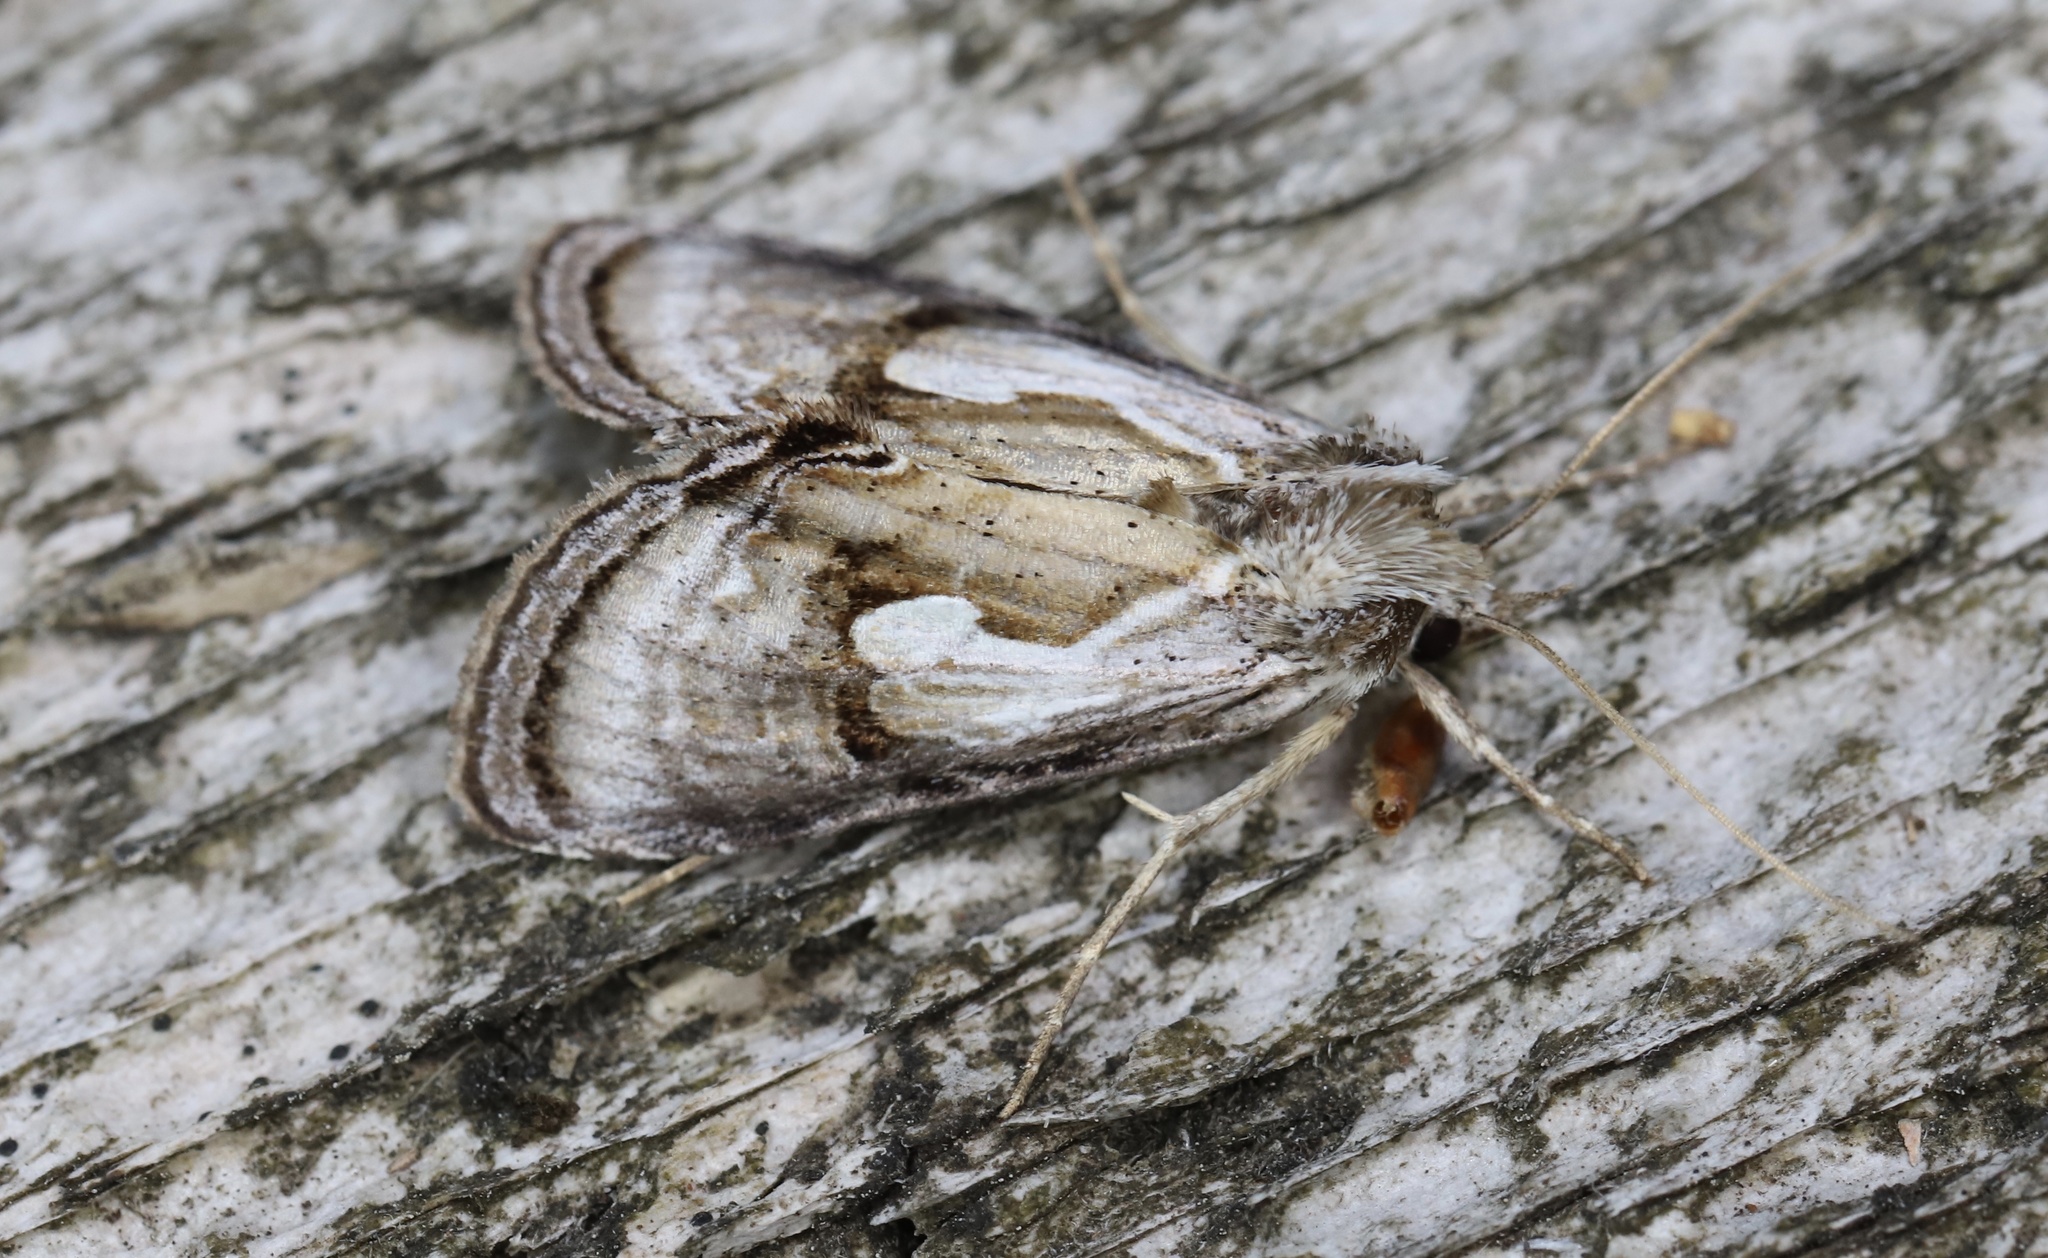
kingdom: Animalia
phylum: Arthropoda
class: Insecta
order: Lepidoptera
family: Noctuidae
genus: Chrysanympha
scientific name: Chrysanympha formosa
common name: Formosa looper moth
